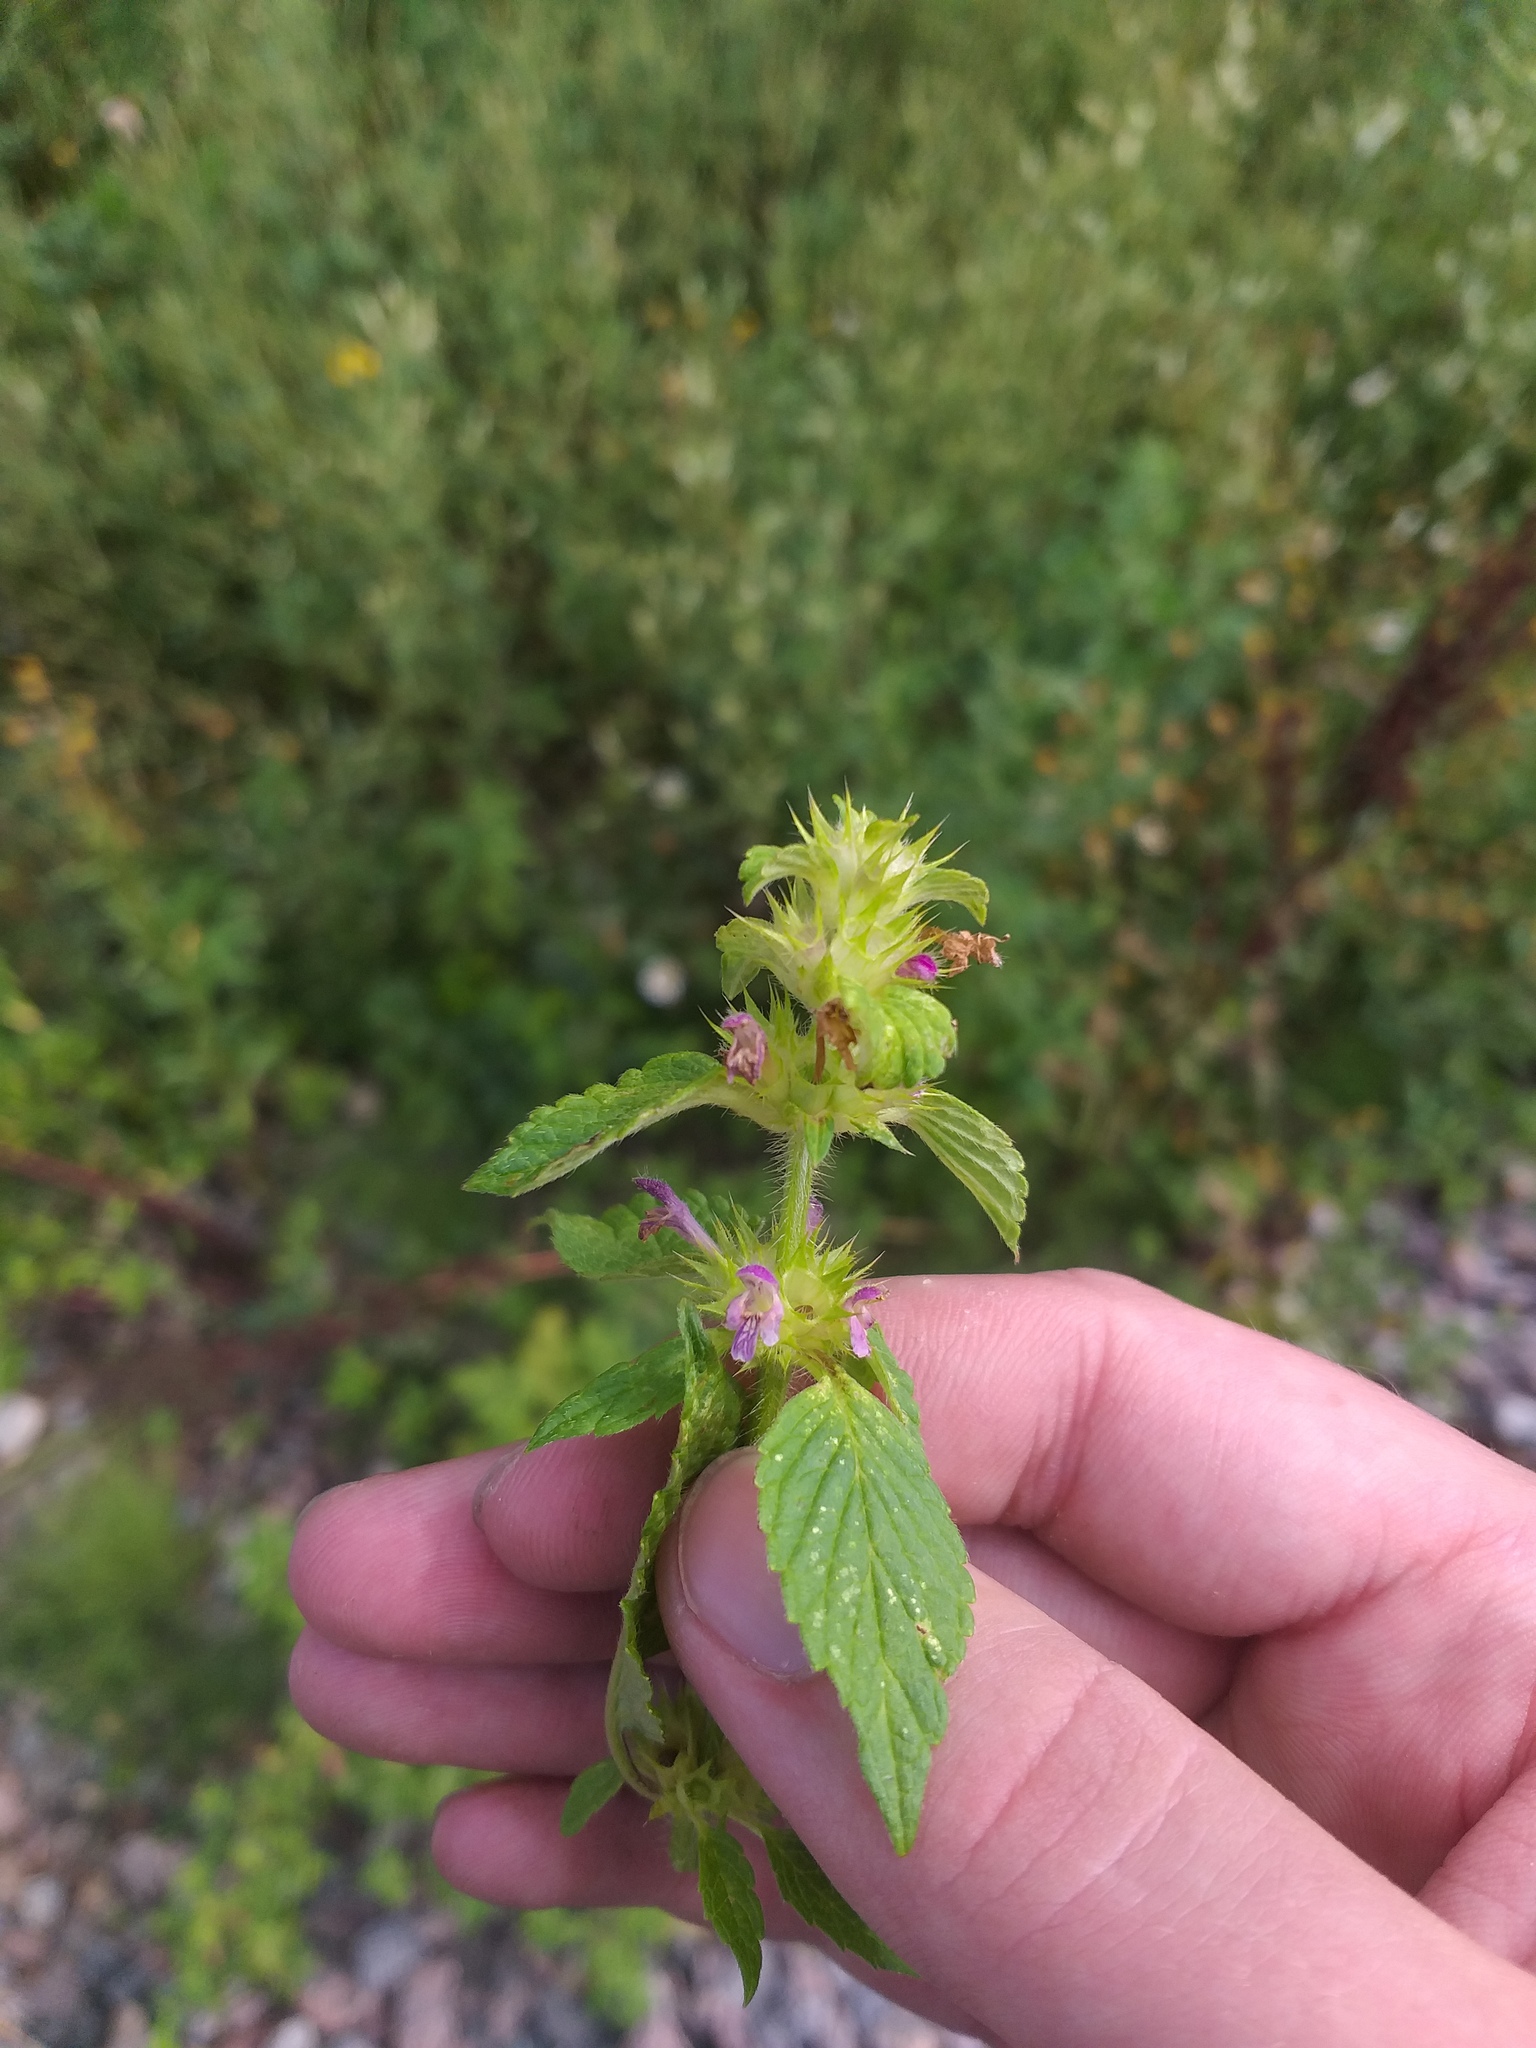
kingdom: Plantae
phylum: Tracheophyta
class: Magnoliopsida
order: Lamiales
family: Lamiaceae
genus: Galeopsis
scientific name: Galeopsis bifida
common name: Bifid hemp-nettle
